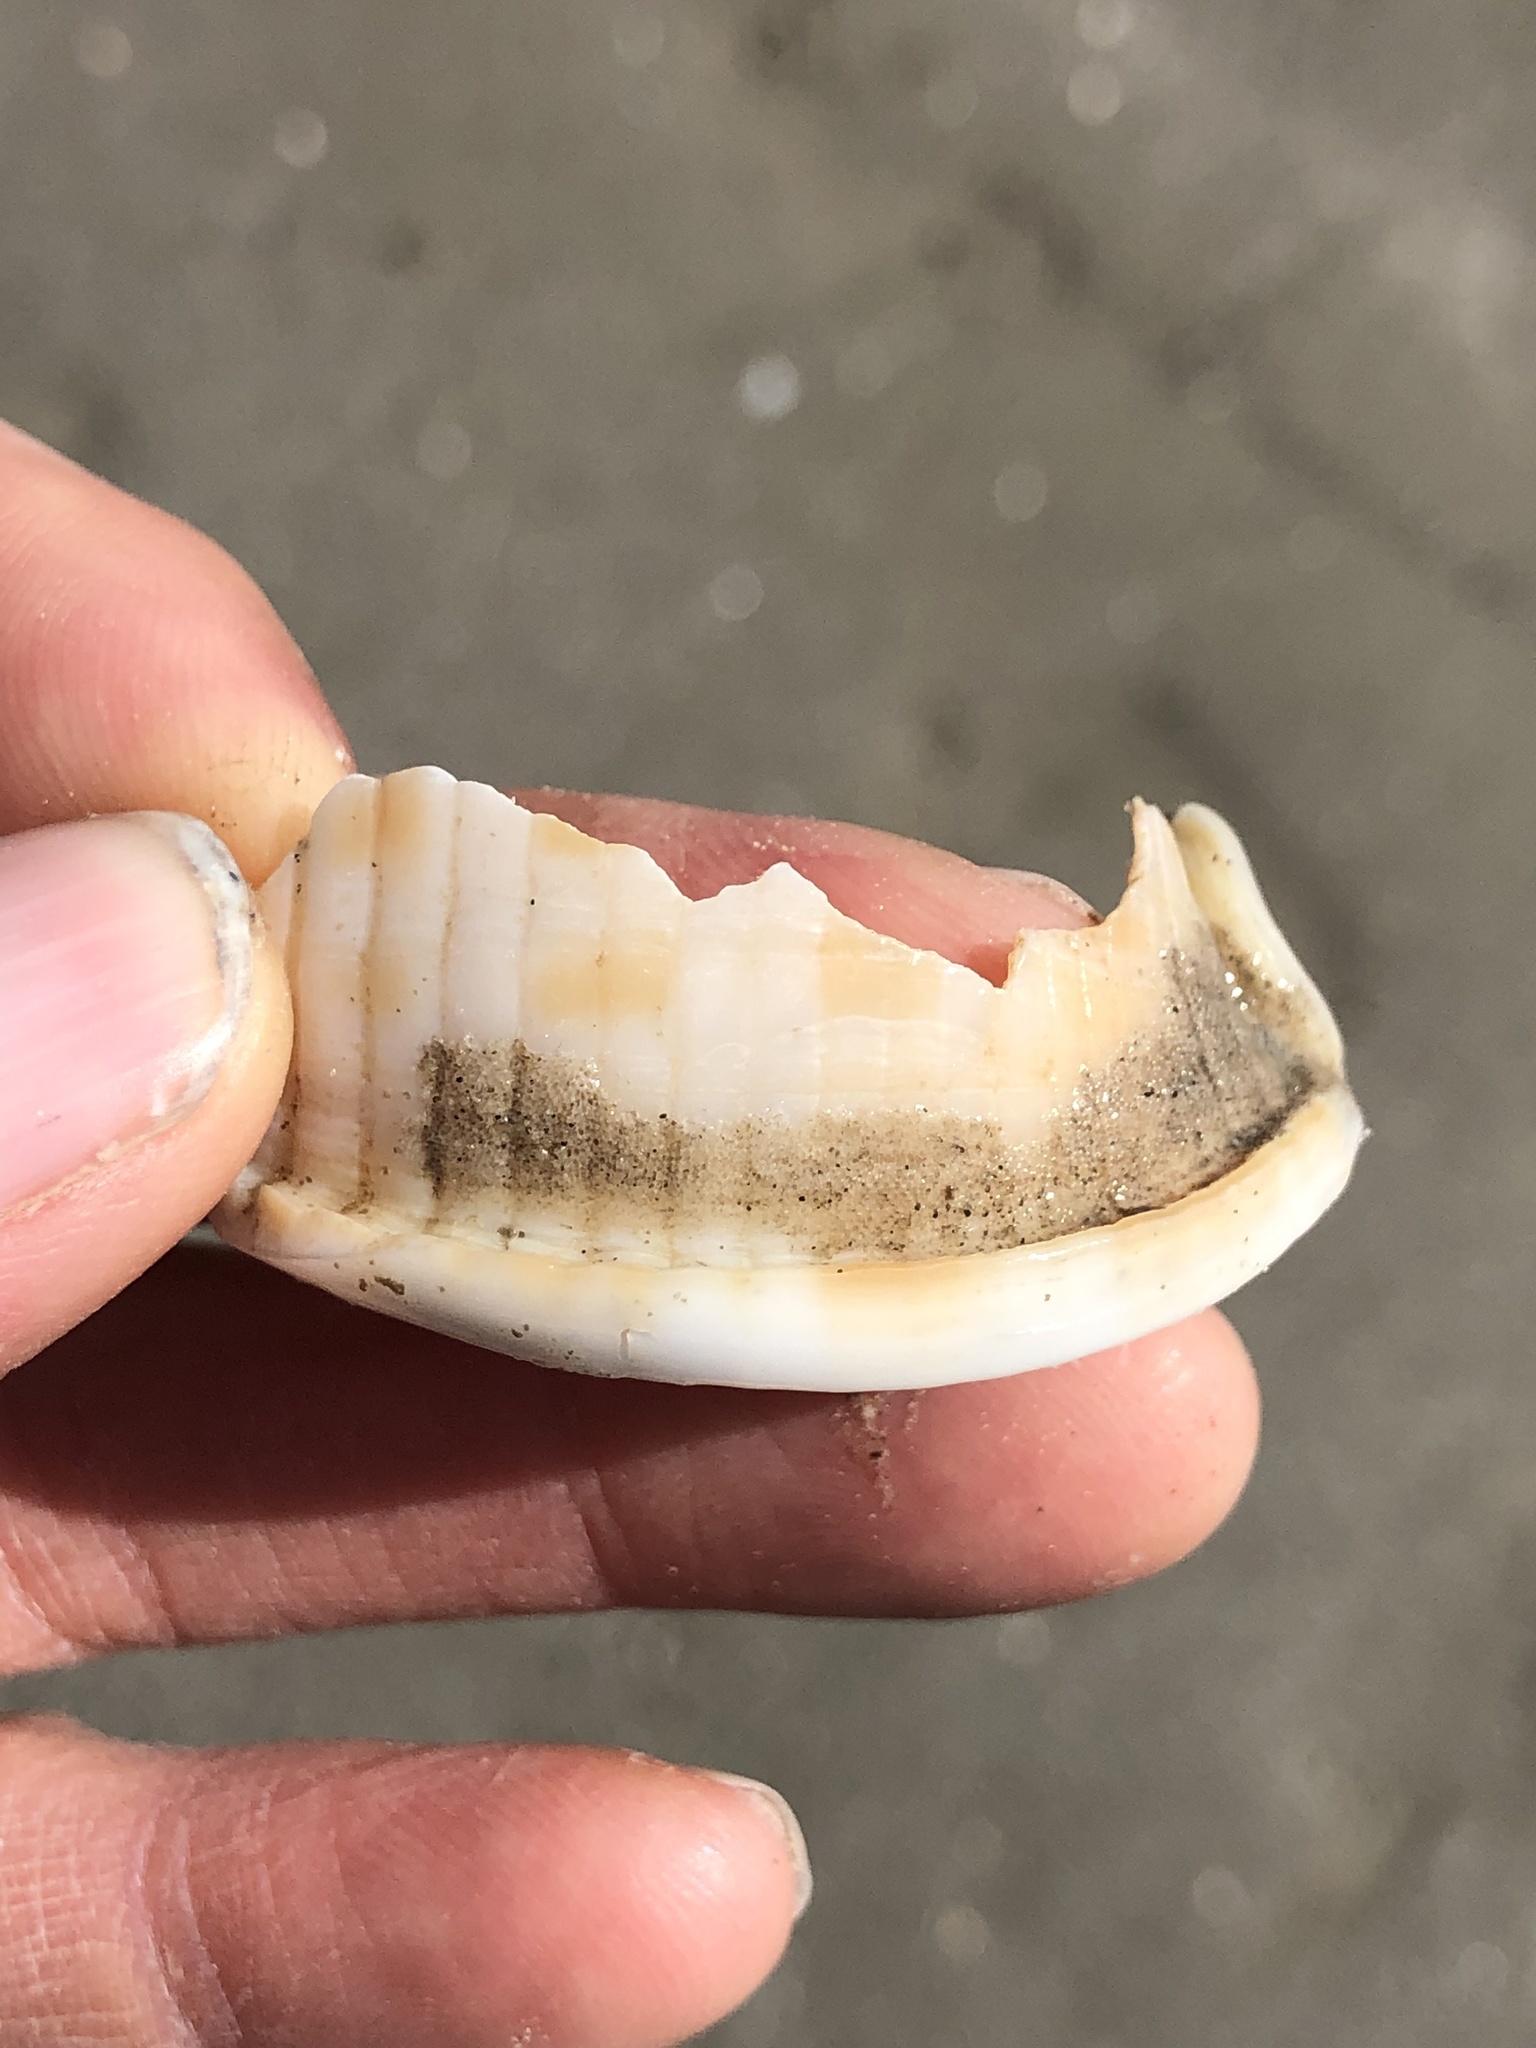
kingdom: Animalia
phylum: Mollusca
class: Gastropoda
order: Littorinimorpha
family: Cassidae
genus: Semicassis
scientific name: Semicassis granulata
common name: Scotch bonnet
